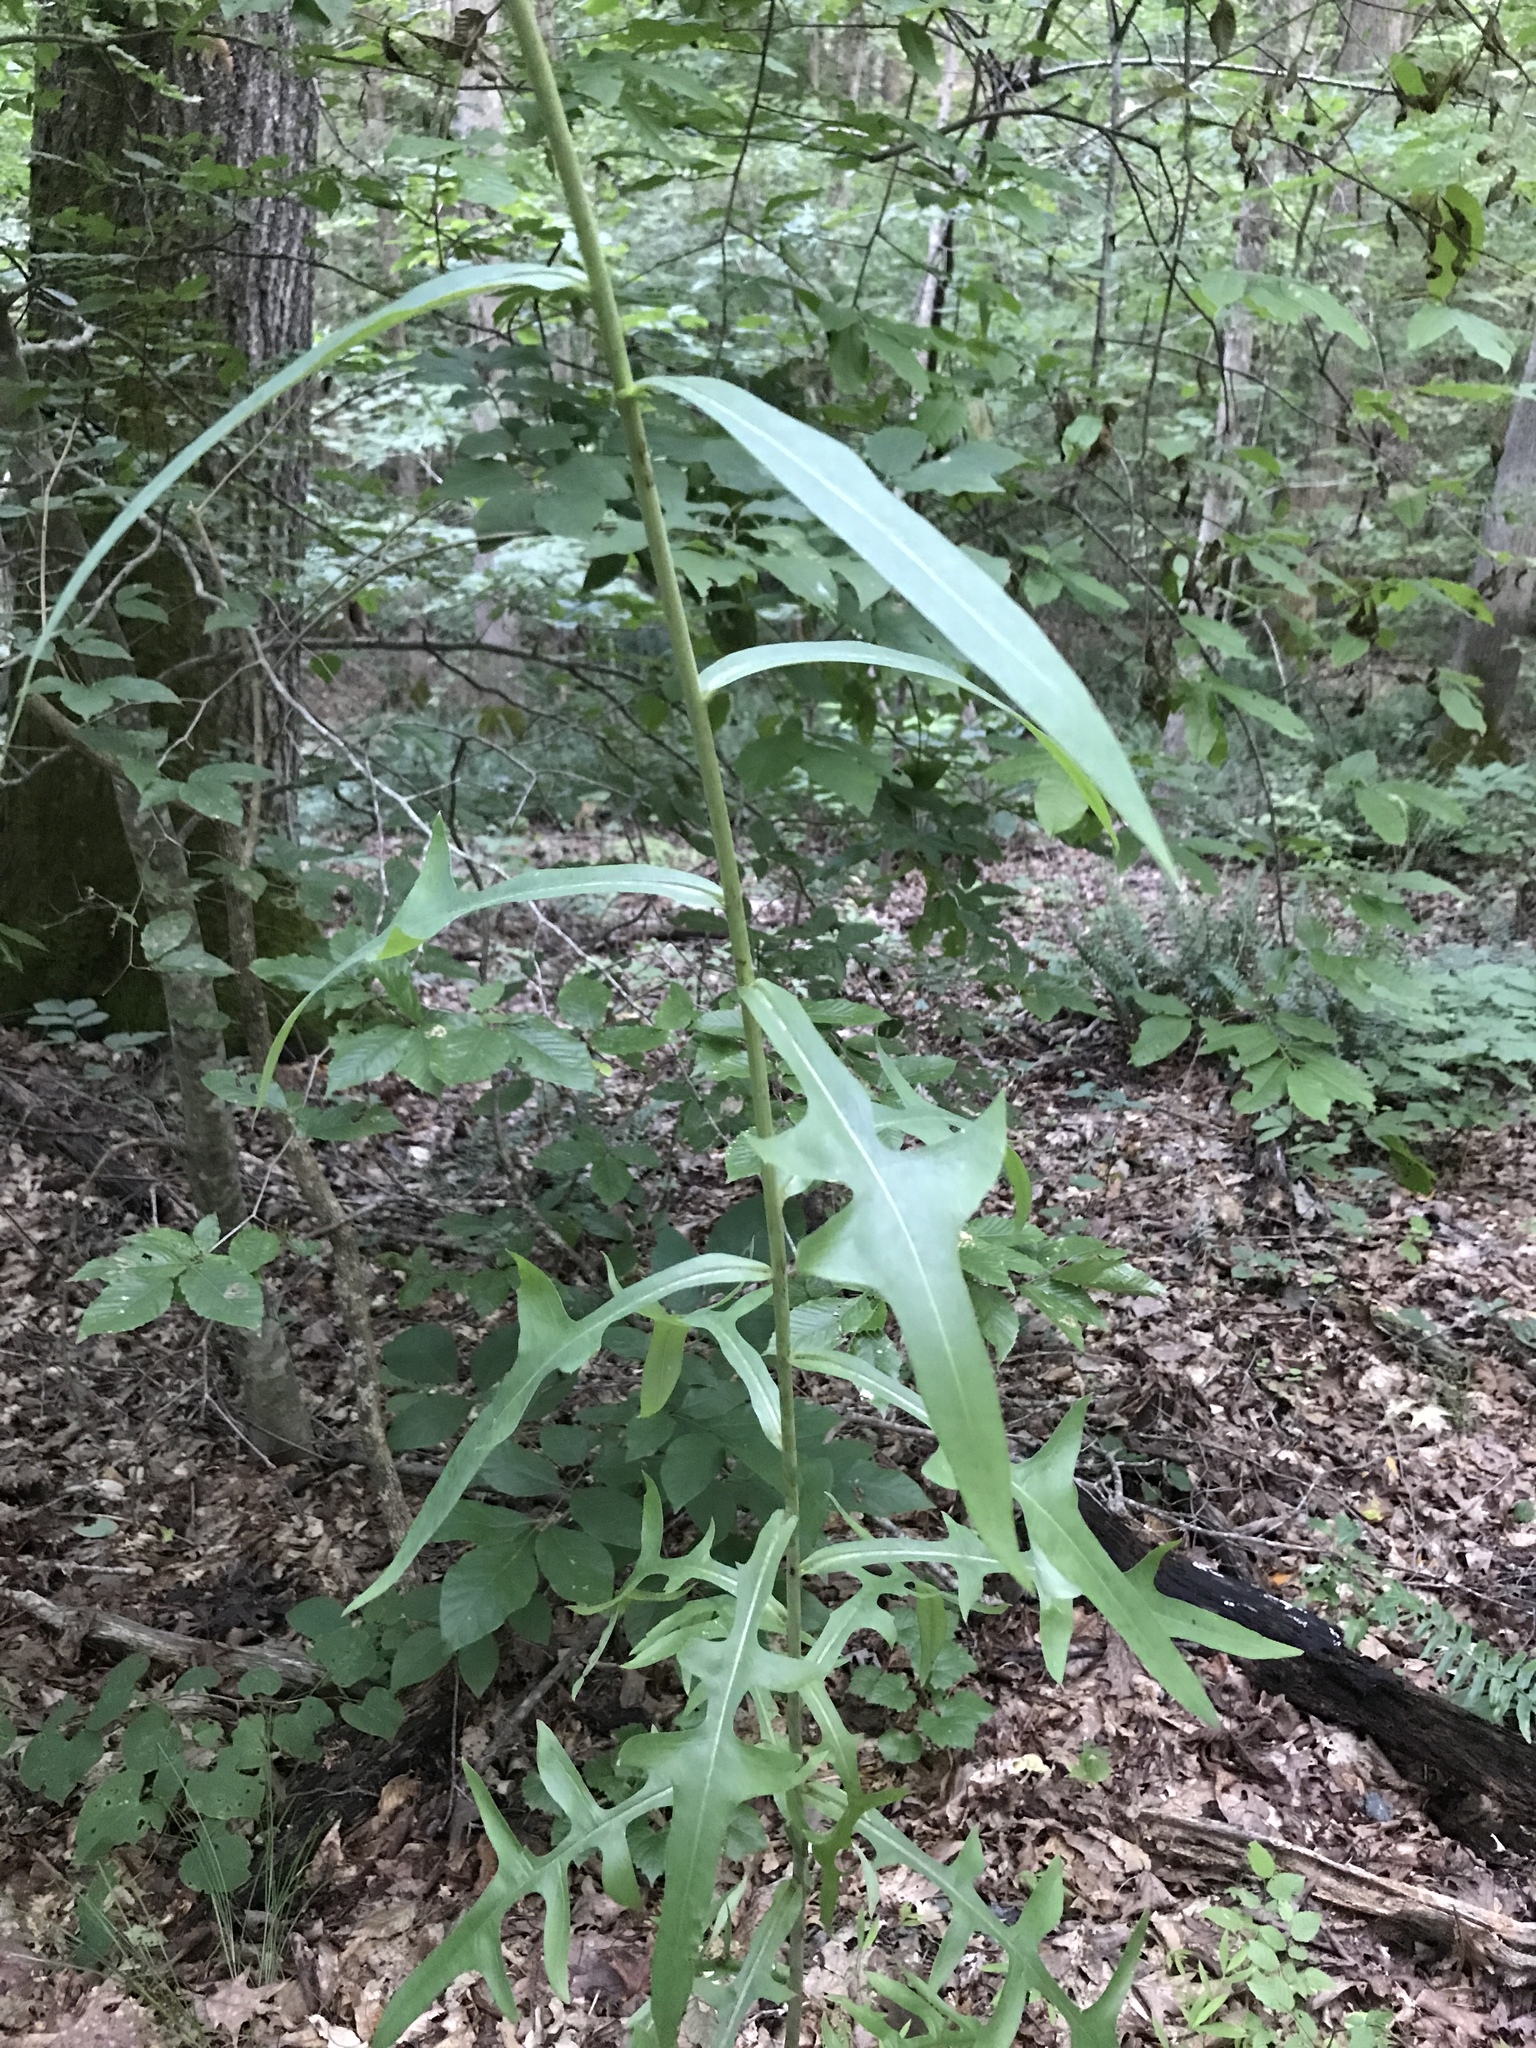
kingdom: Plantae
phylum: Tracheophyta
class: Magnoliopsida
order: Asterales
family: Asteraceae
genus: Lactuca
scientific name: Lactuca canadensis
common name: Canada lettuce
